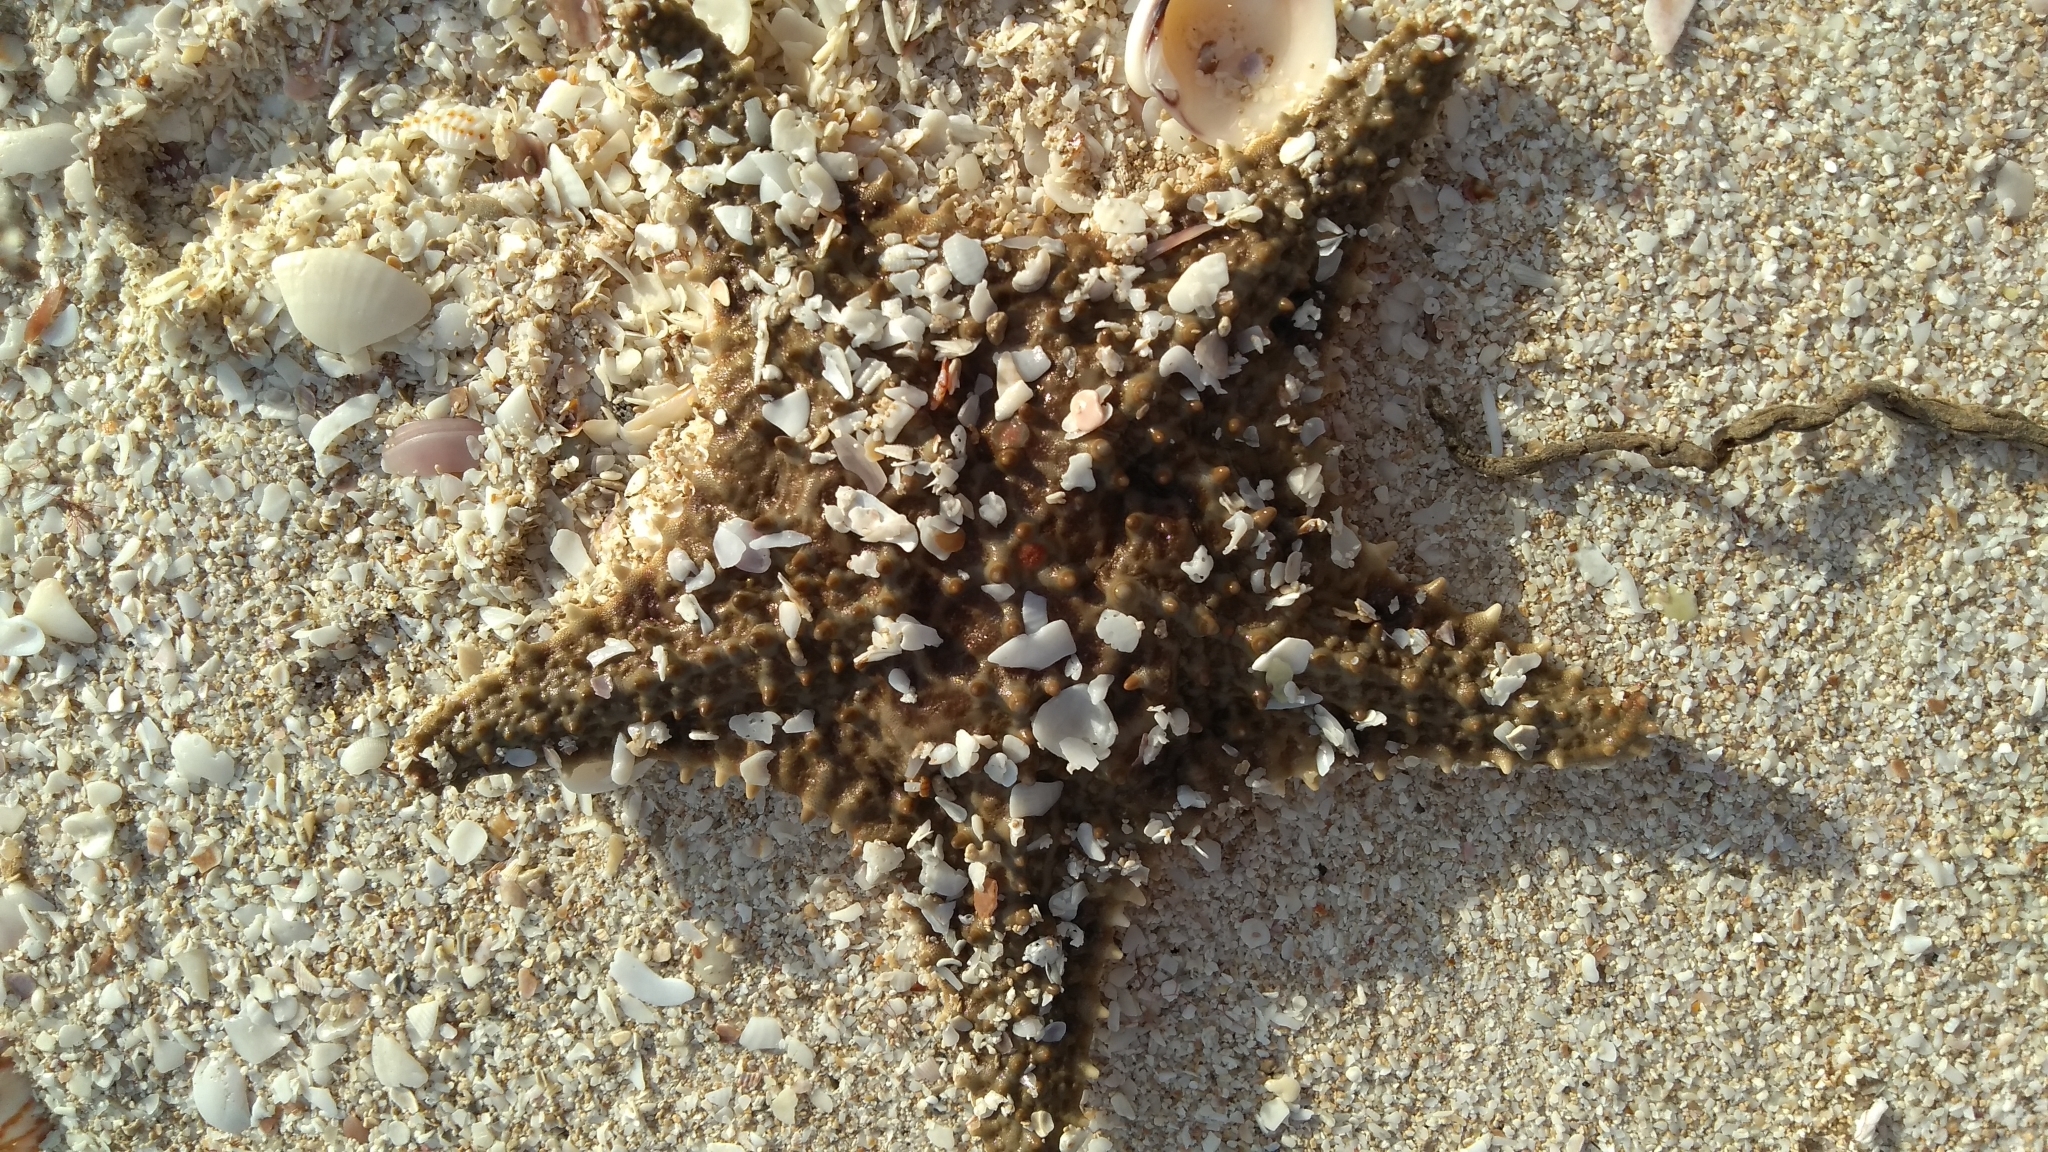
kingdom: Animalia
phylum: Echinodermata
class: Asteroidea
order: Valvatida
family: Oreasteridae
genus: Oreaster
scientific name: Oreaster reticulatus
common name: Cushion sea star
